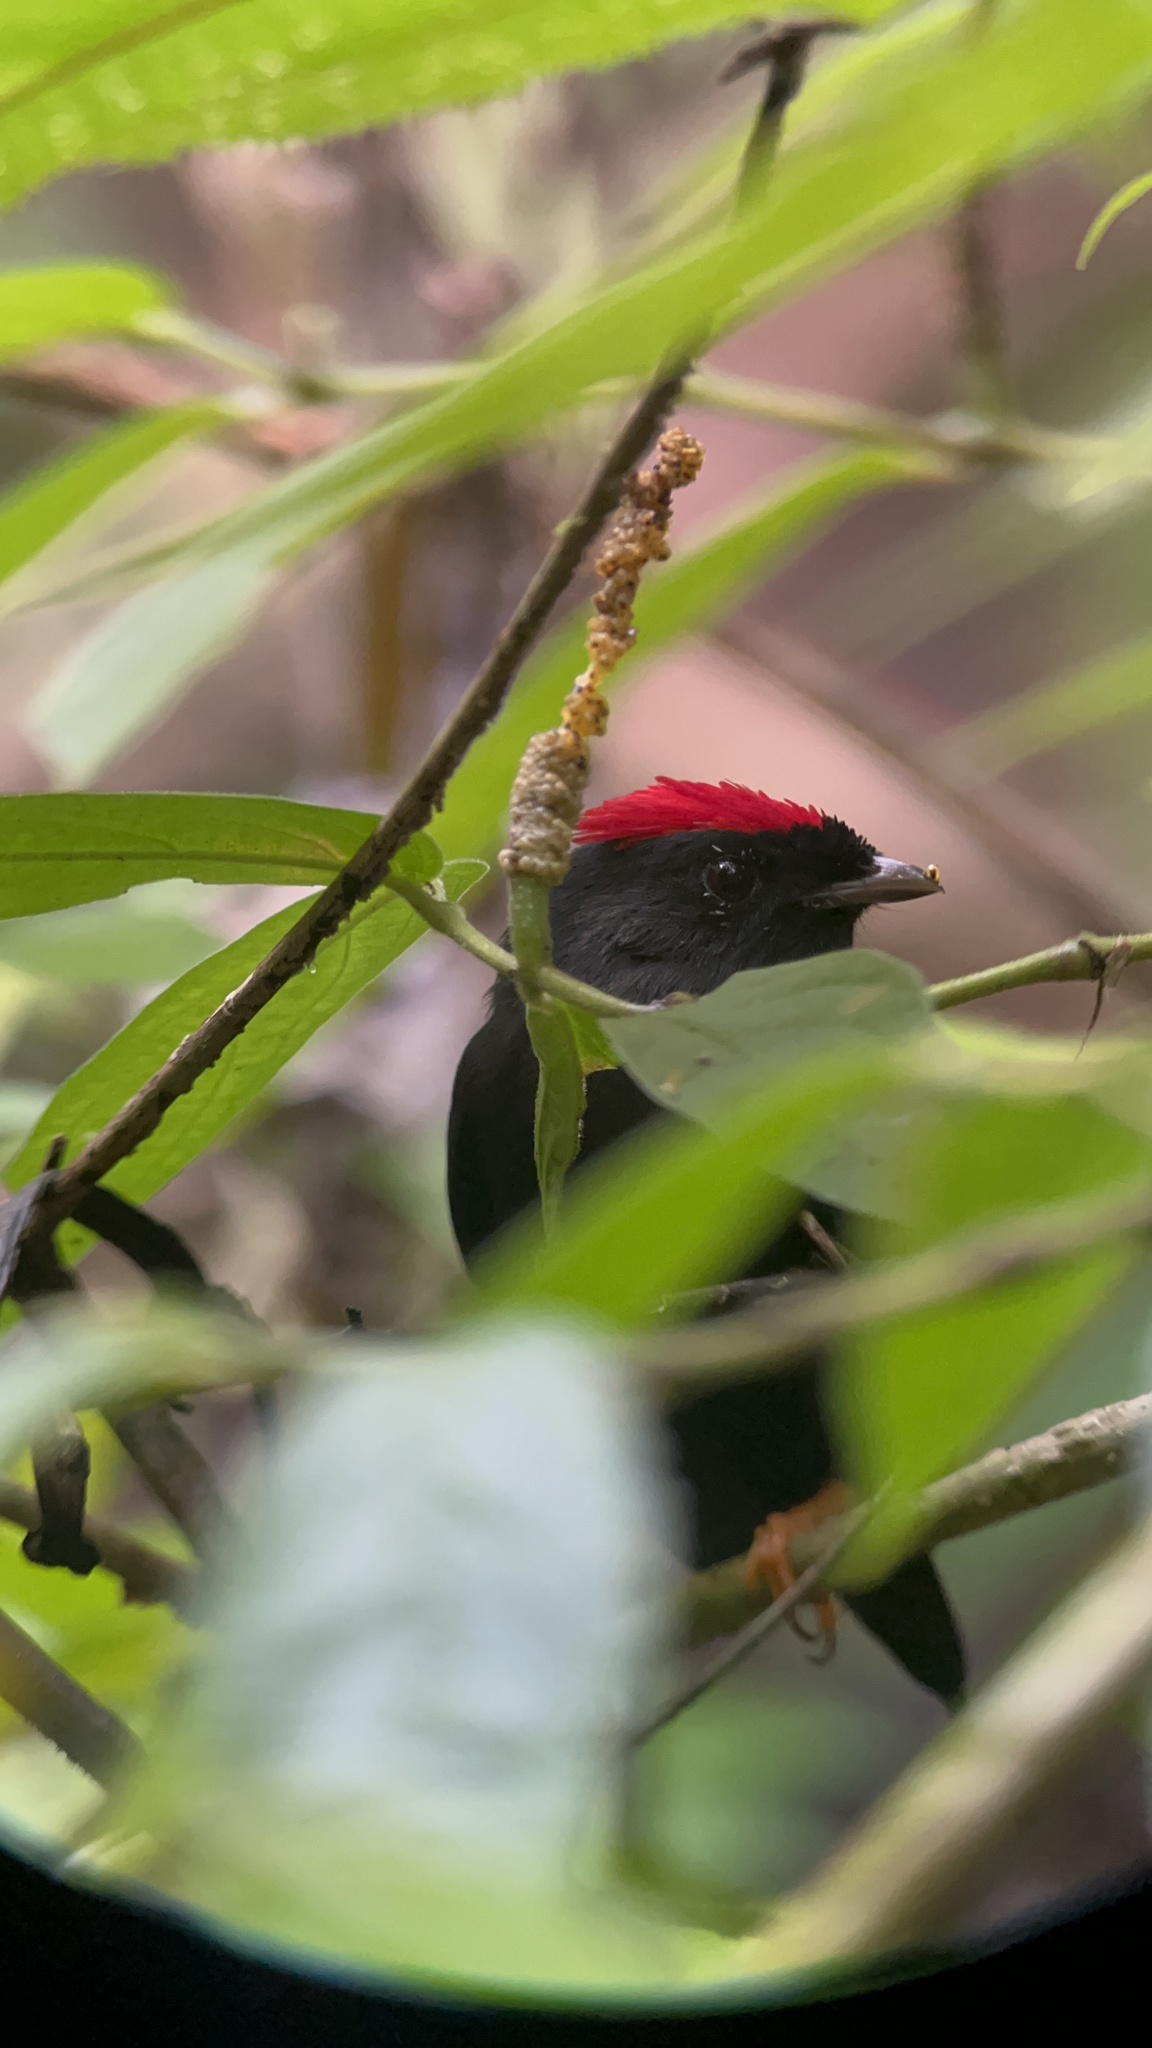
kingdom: Animalia
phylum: Chordata
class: Aves
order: Passeriformes
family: Pipridae
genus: Chiroxiphia
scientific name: Chiroxiphia lanceolata
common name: Lance-tailed manakin
